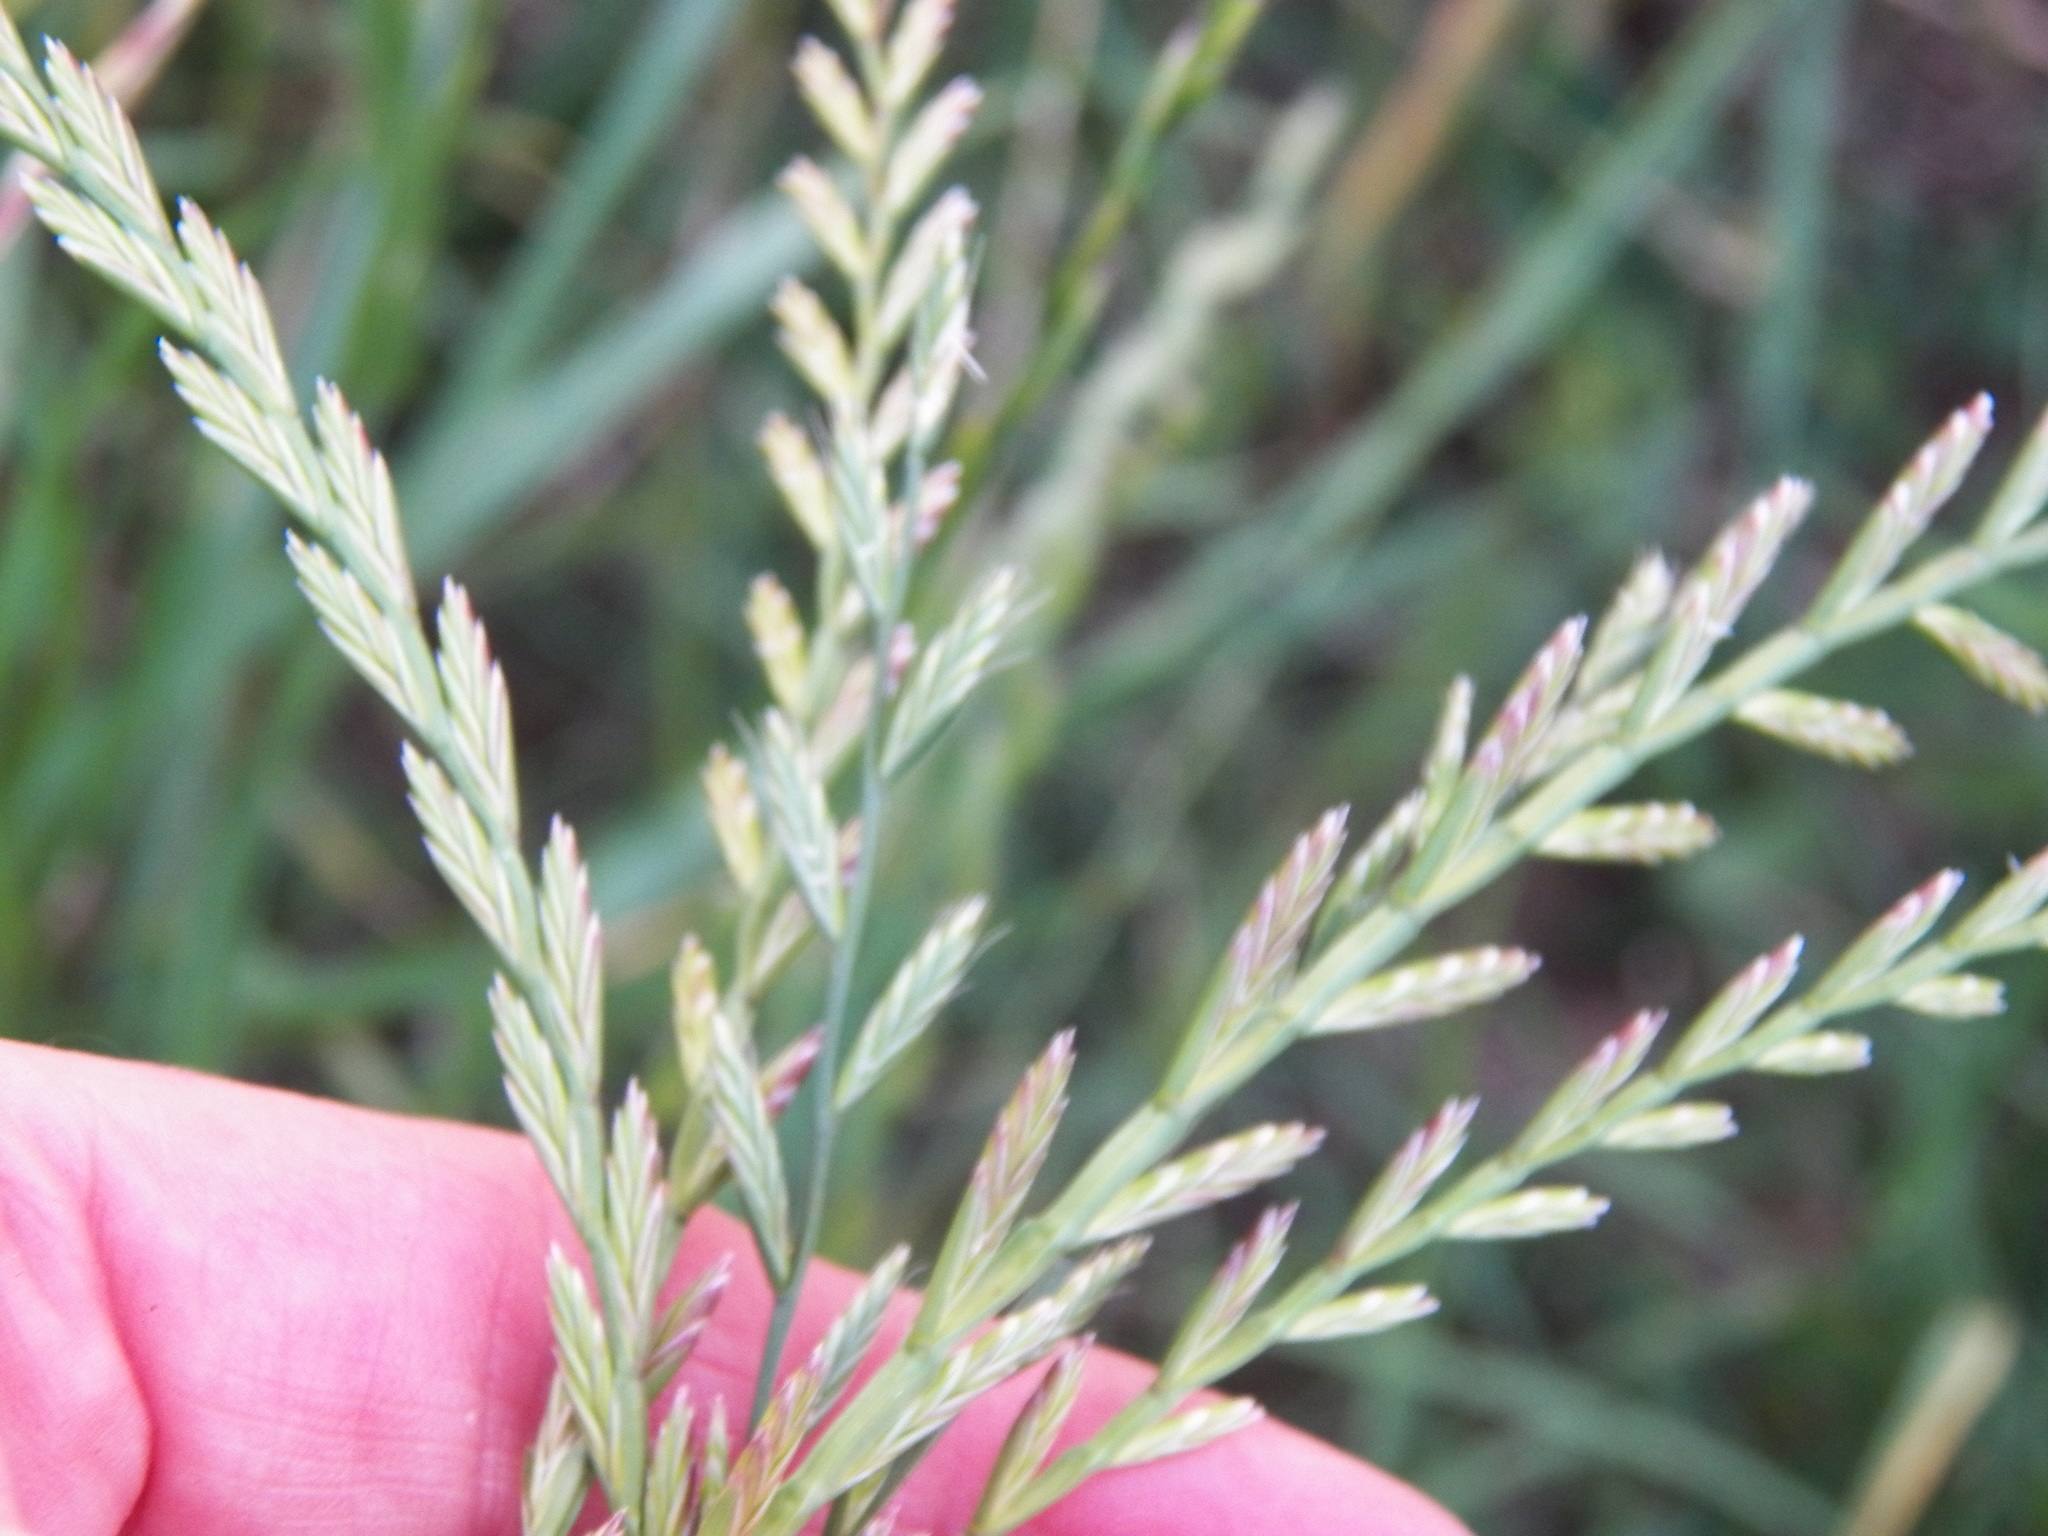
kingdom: Plantae
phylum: Tracheophyta
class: Liliopsida
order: Poales
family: Poaceae
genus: Lolium
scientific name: Lolium multiflorum
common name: Annual ryegrass
